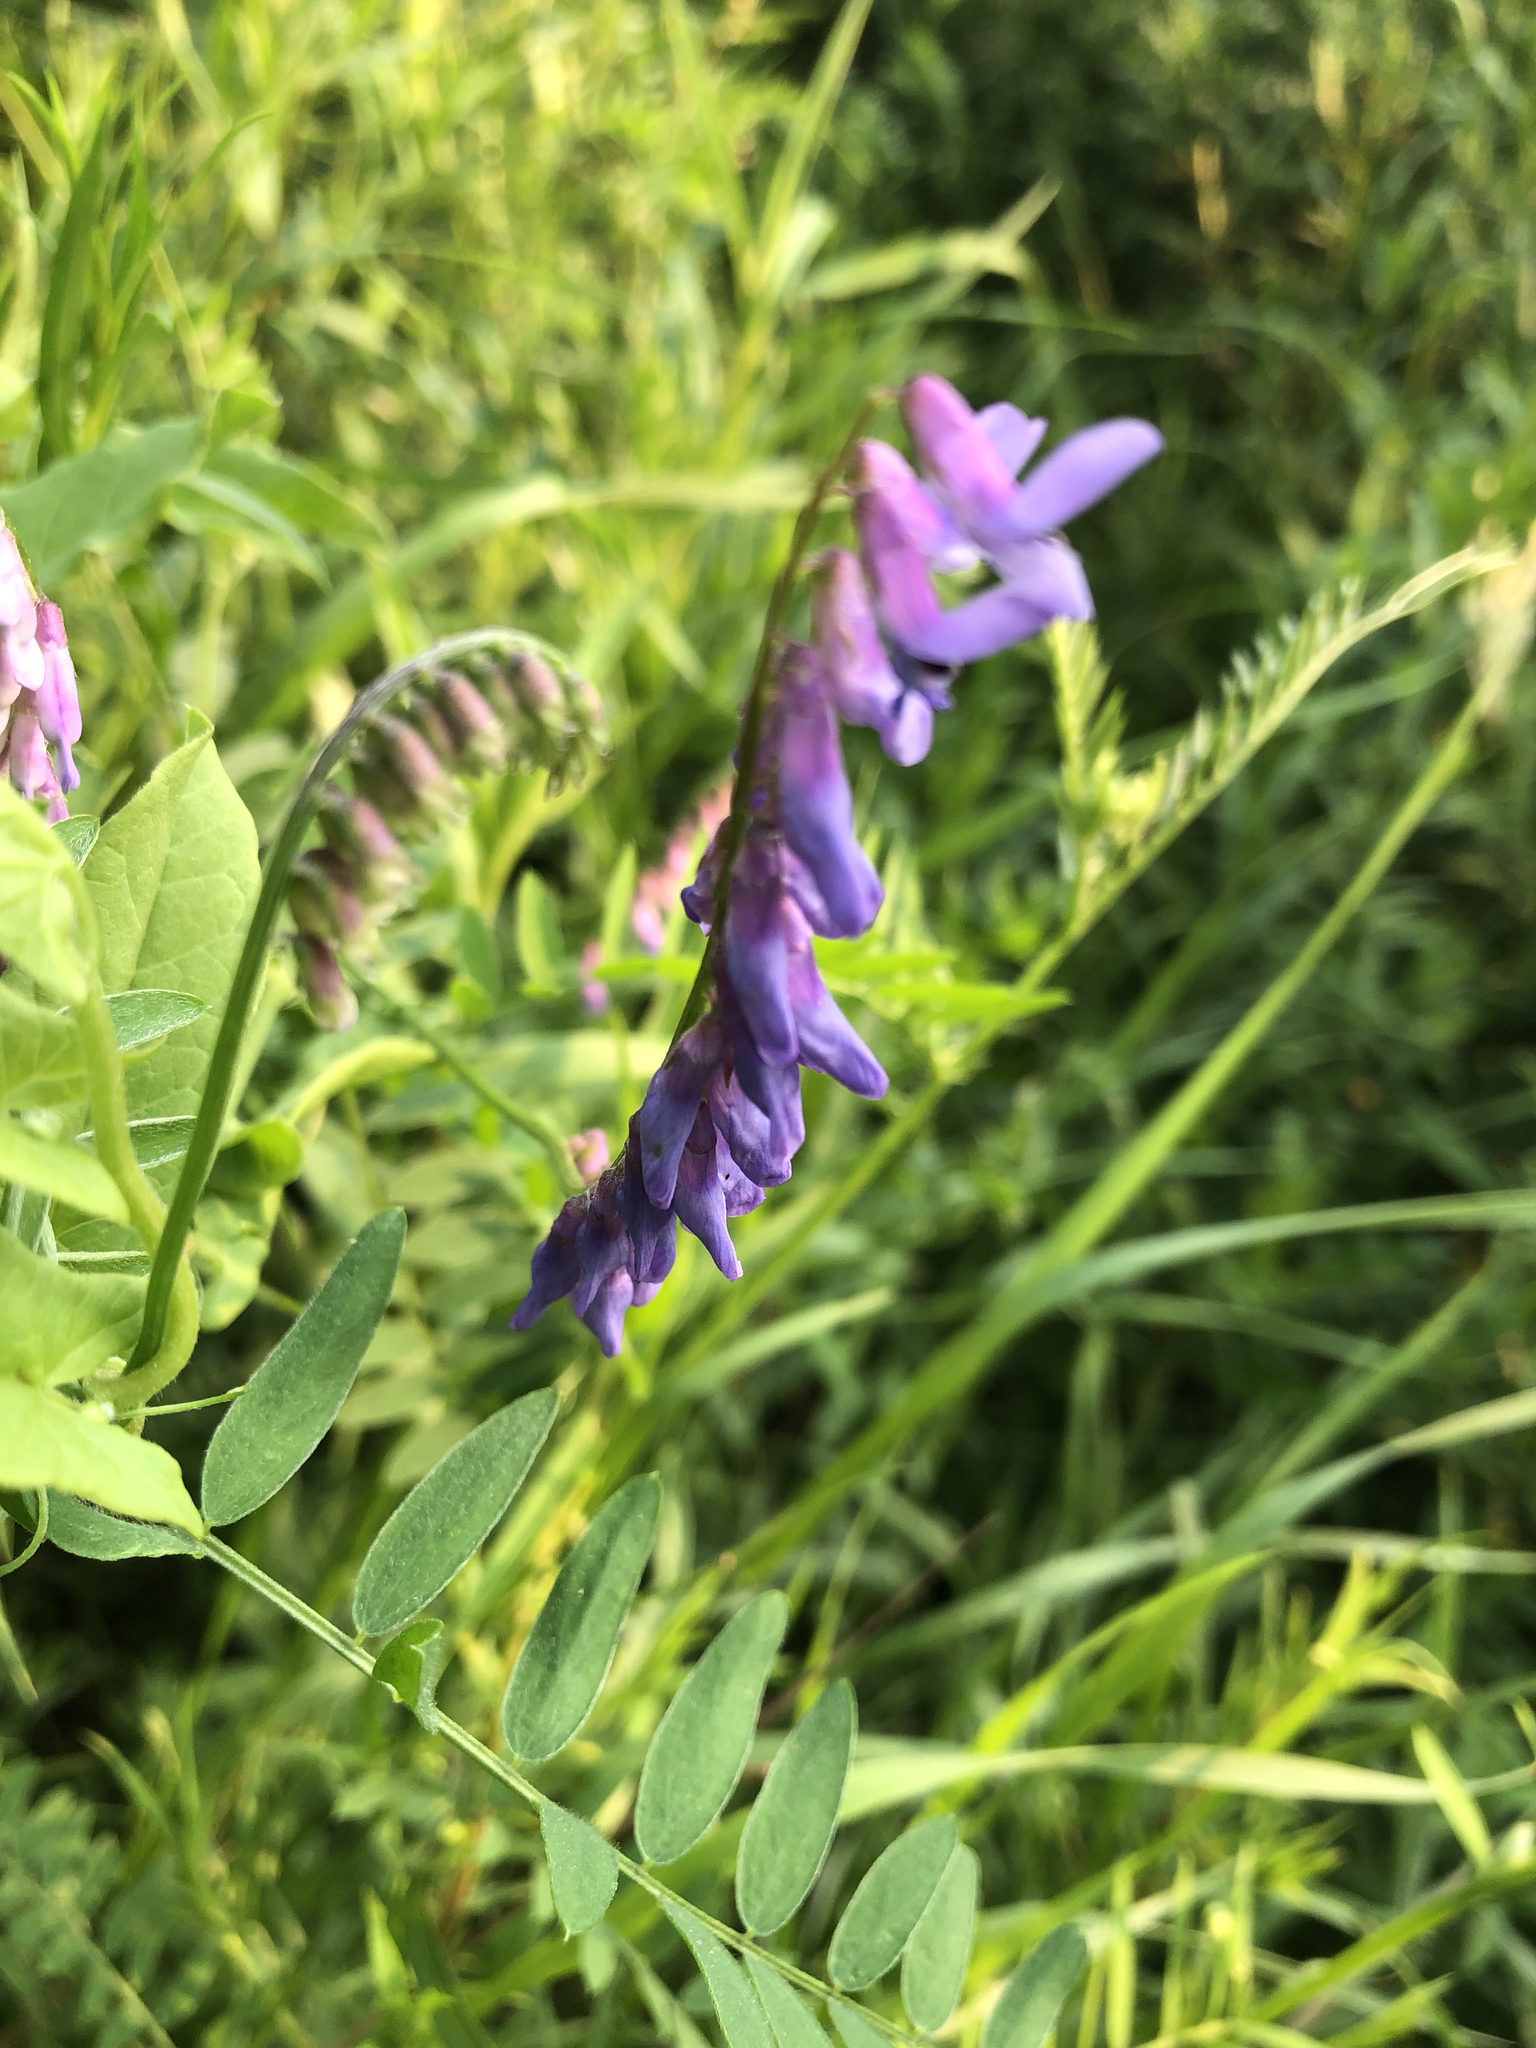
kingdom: Plantae
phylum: Tracheophyta
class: Magnoliopsida
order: Fabales
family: Fabaceae
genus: Vicia
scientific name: Vicia cracca
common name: Bird vetch
